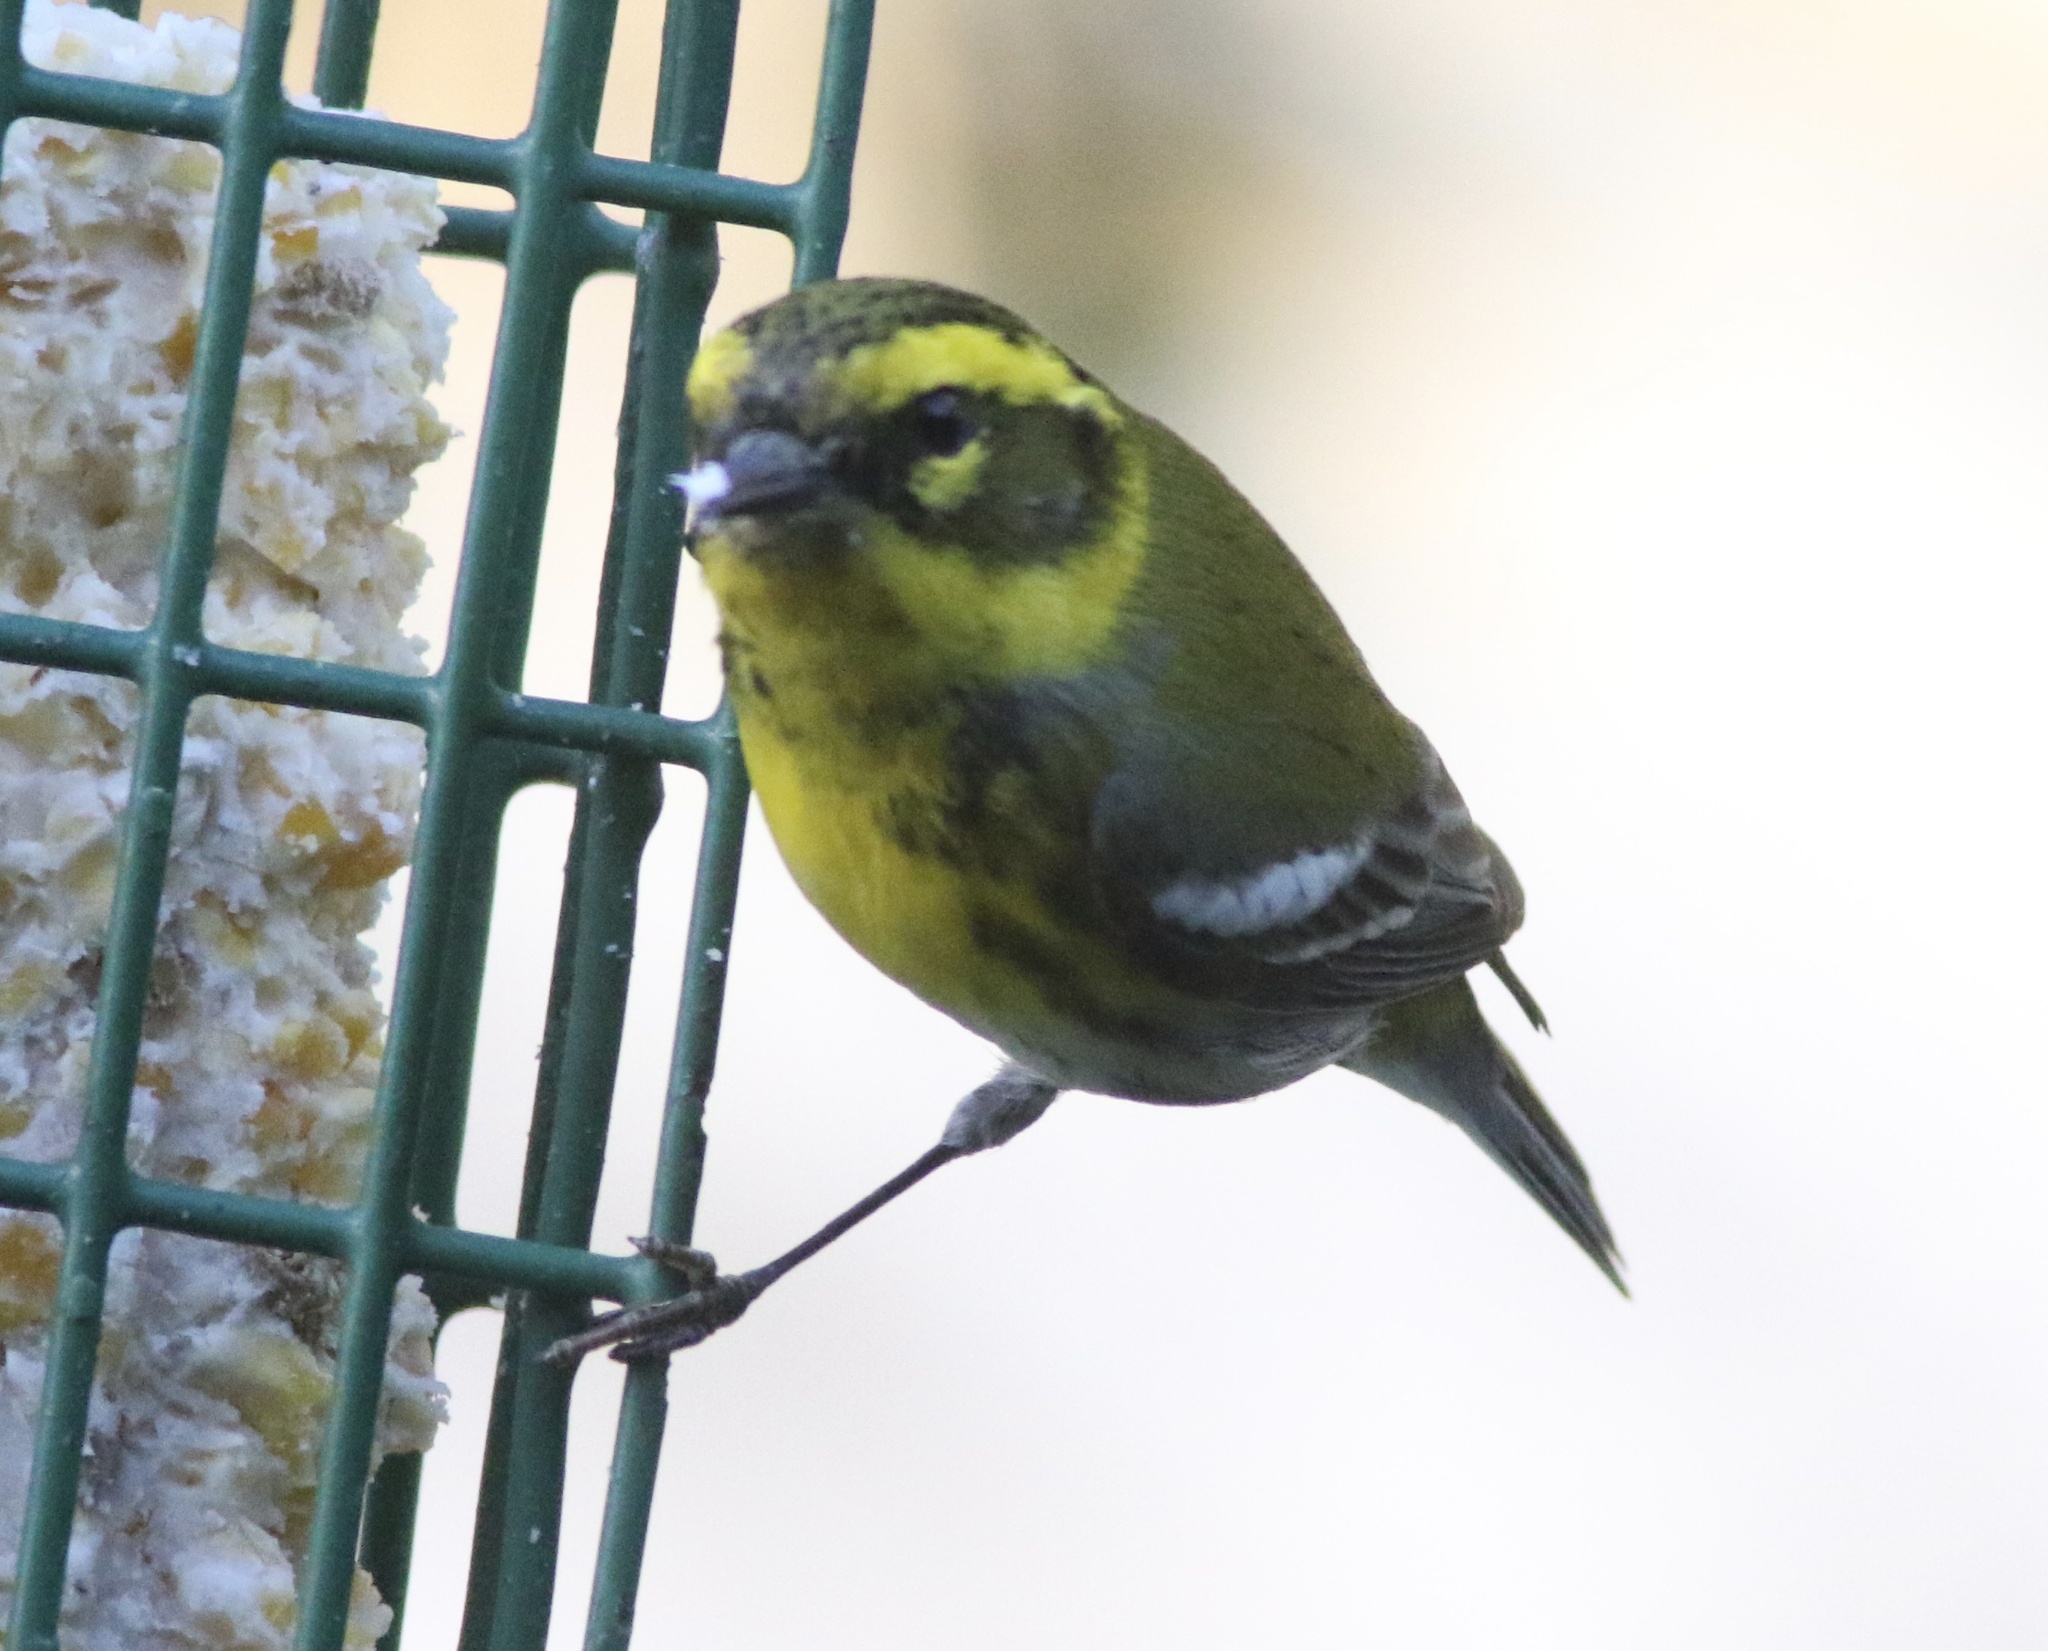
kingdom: Animalia
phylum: Chordata
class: Aves
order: Passeriformes
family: Parulidae
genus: Setophaga
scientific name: Setophaga townsendi
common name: Townsend's warbler
